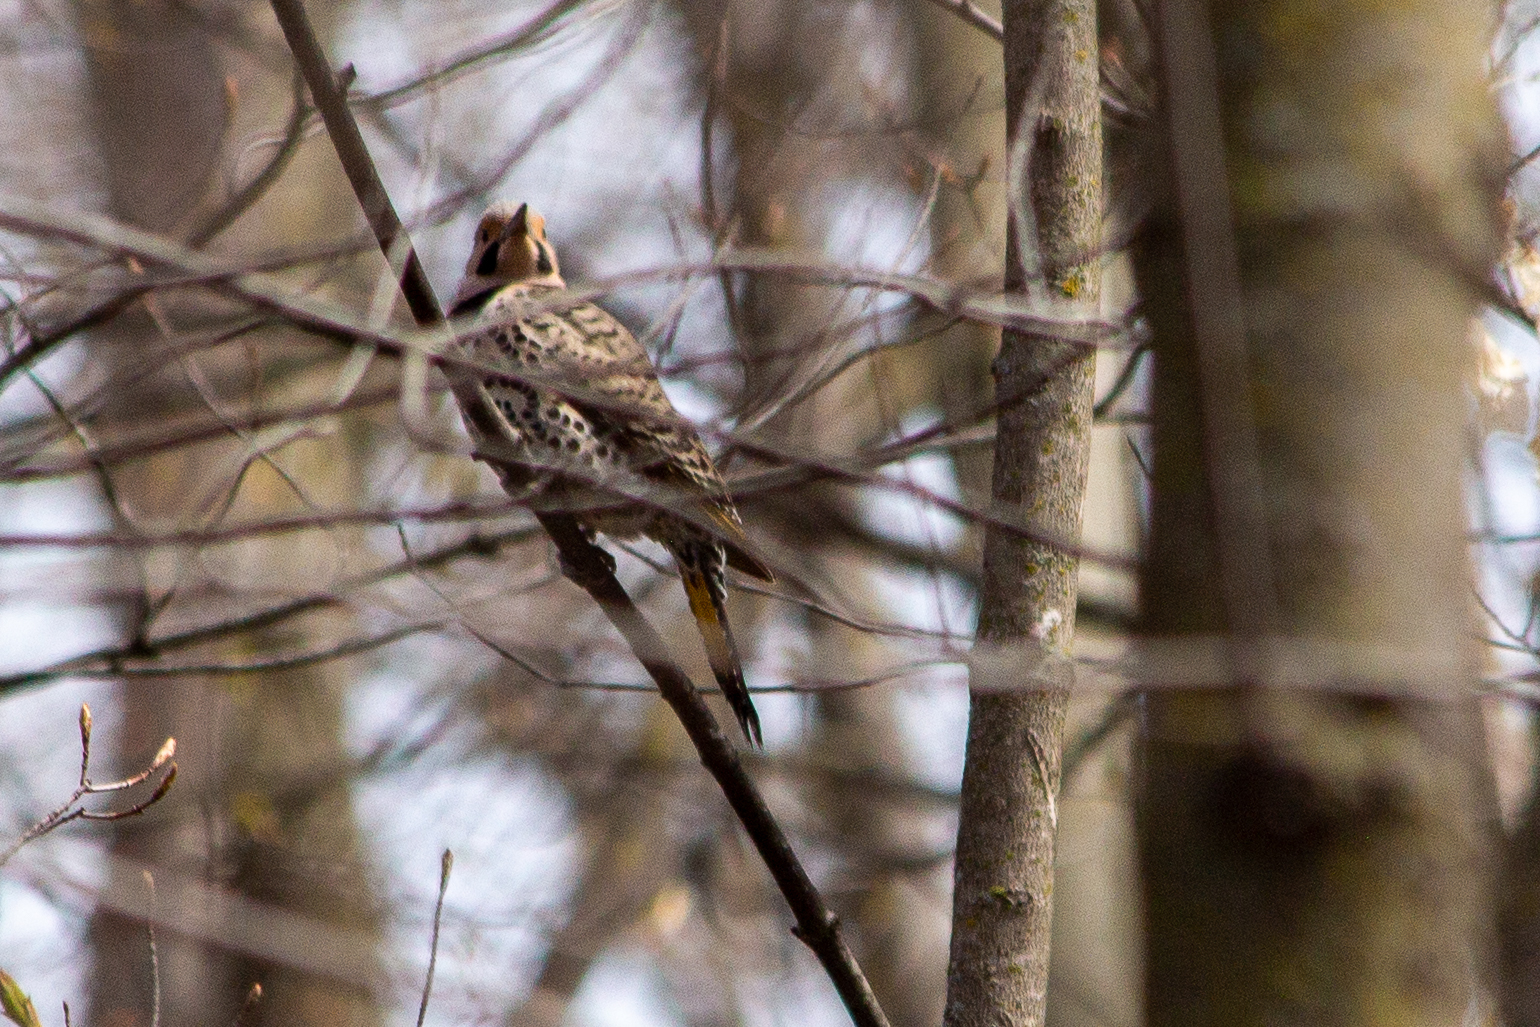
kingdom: Animalia
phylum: Chordata
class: Aves
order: Piciformes
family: Picidae
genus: Colaptes
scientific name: Colaptes auratus
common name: Northern flicker
